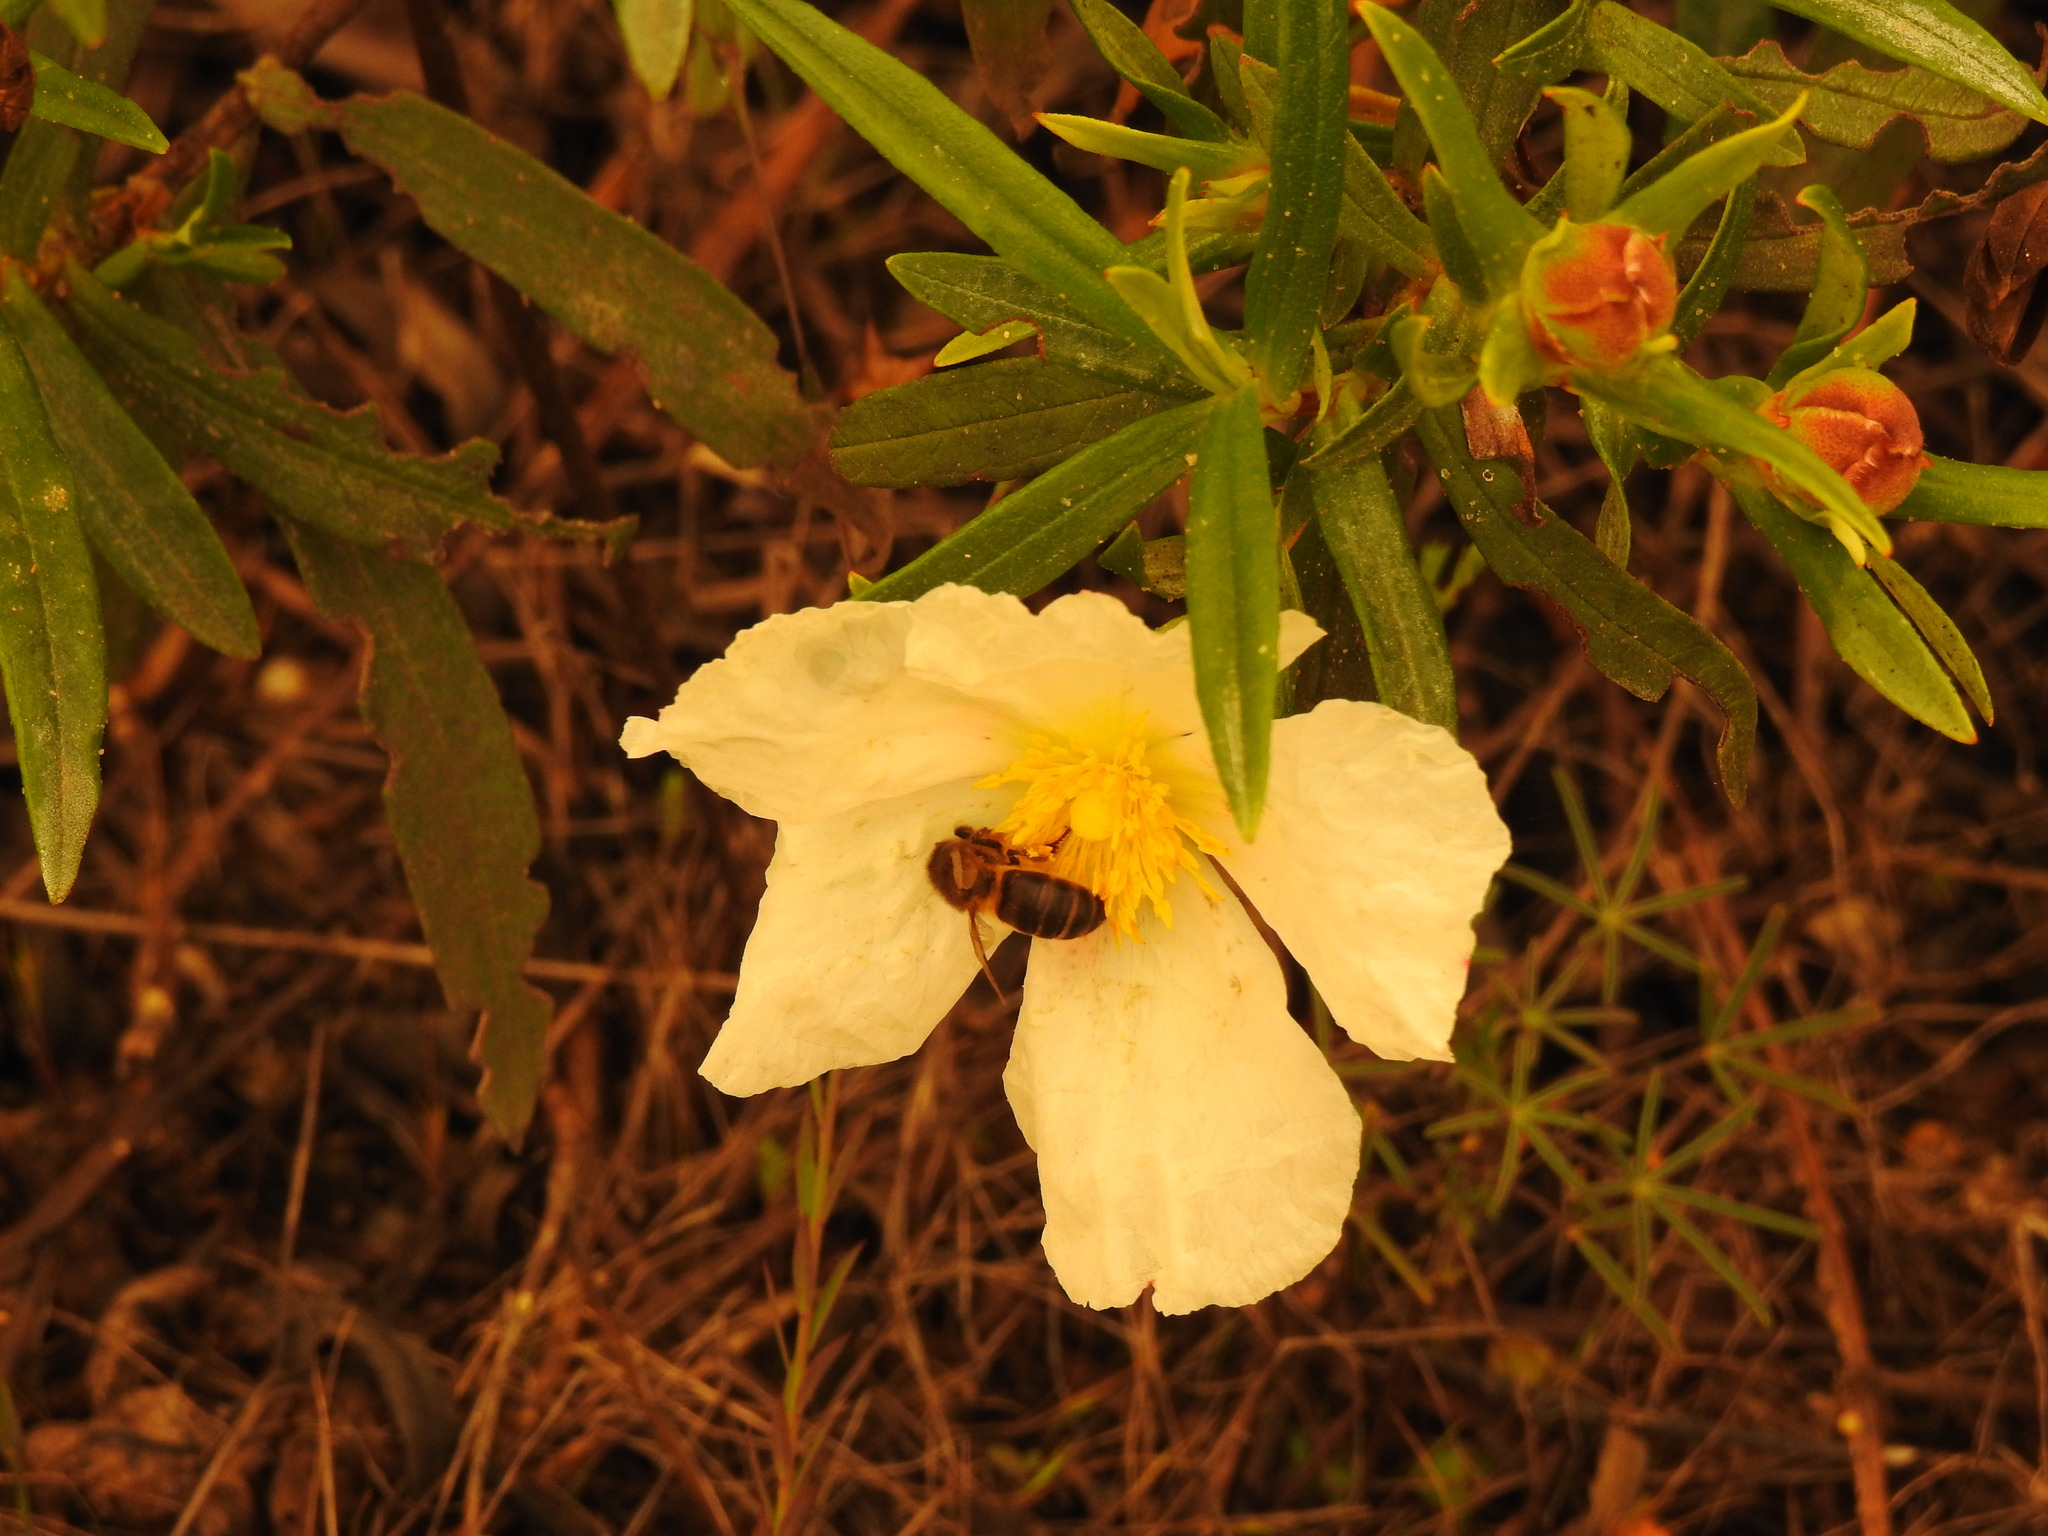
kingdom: Plantae
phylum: Tracheophyta
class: Magnoliopsida
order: Malvales
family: Cistaceae
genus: Cistus
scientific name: Cistus ladanifer
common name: Common gum cistus
